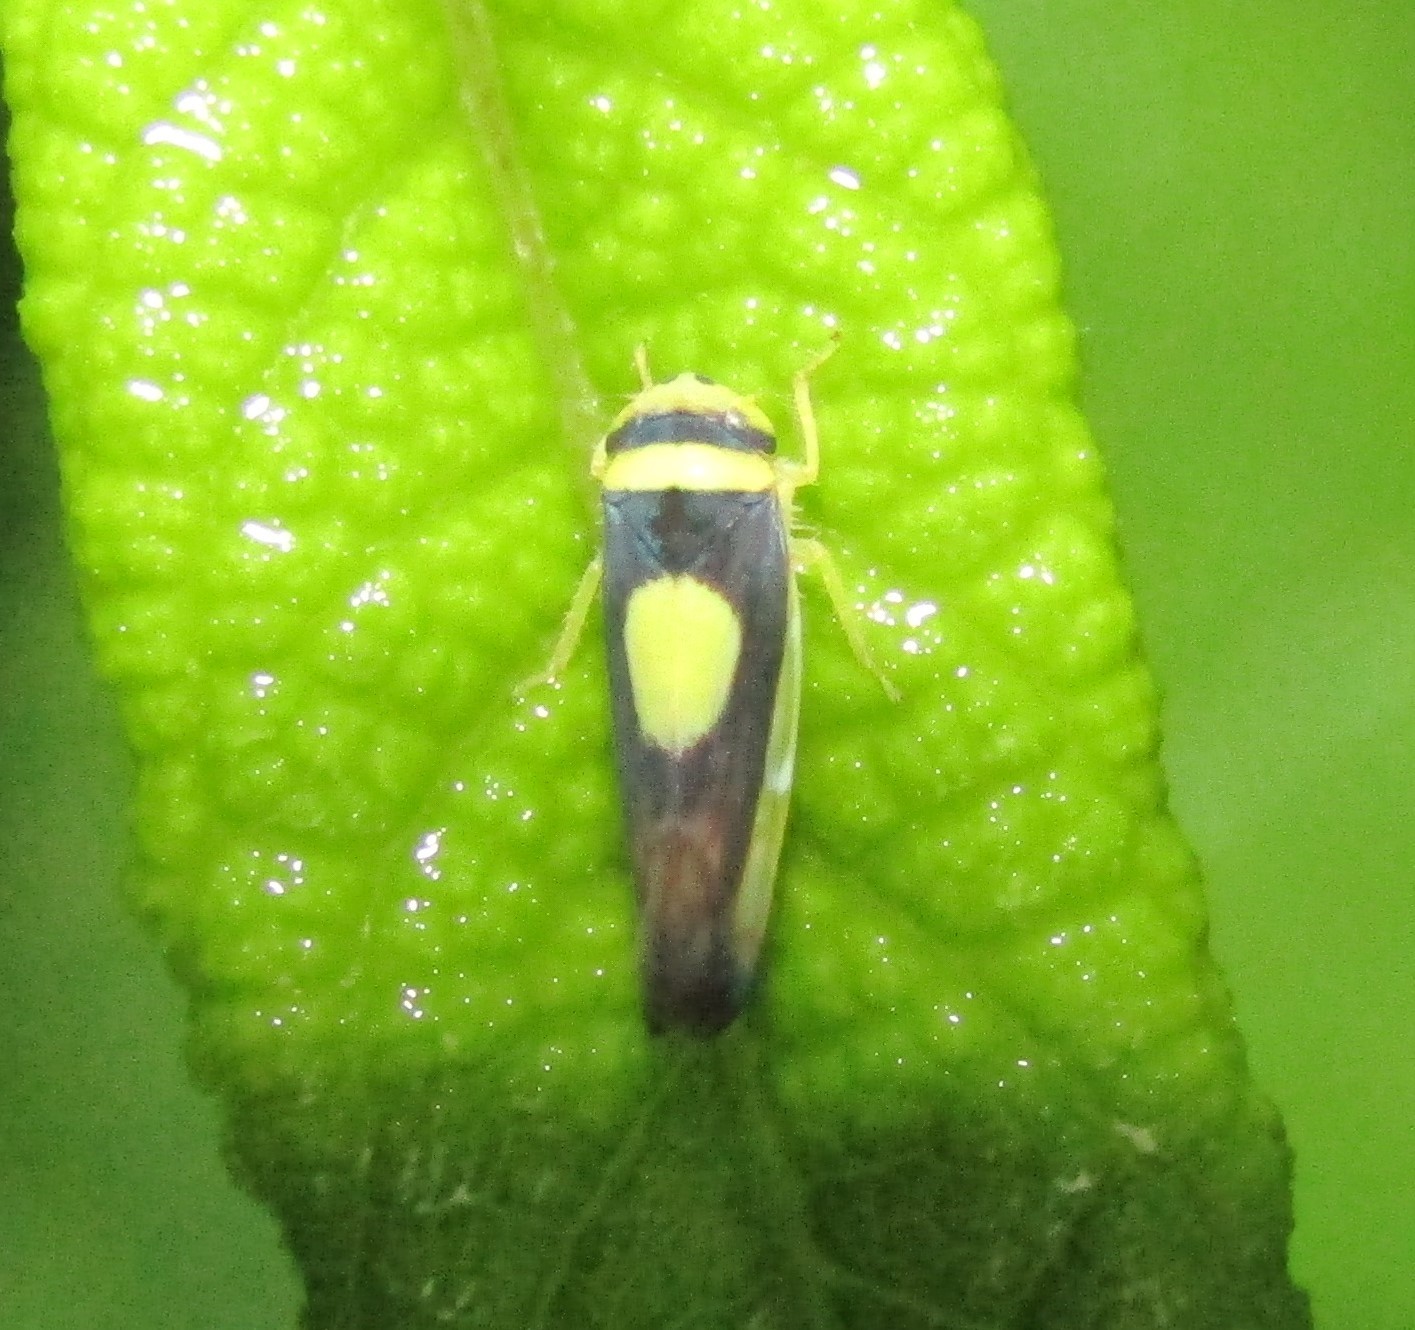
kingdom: Animalia
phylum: Arthropoda
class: Insecta
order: Hemiptera
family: Cicadellidae
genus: Colladonus
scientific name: Colladonus clitellarius
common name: The saddleback leafhopper
